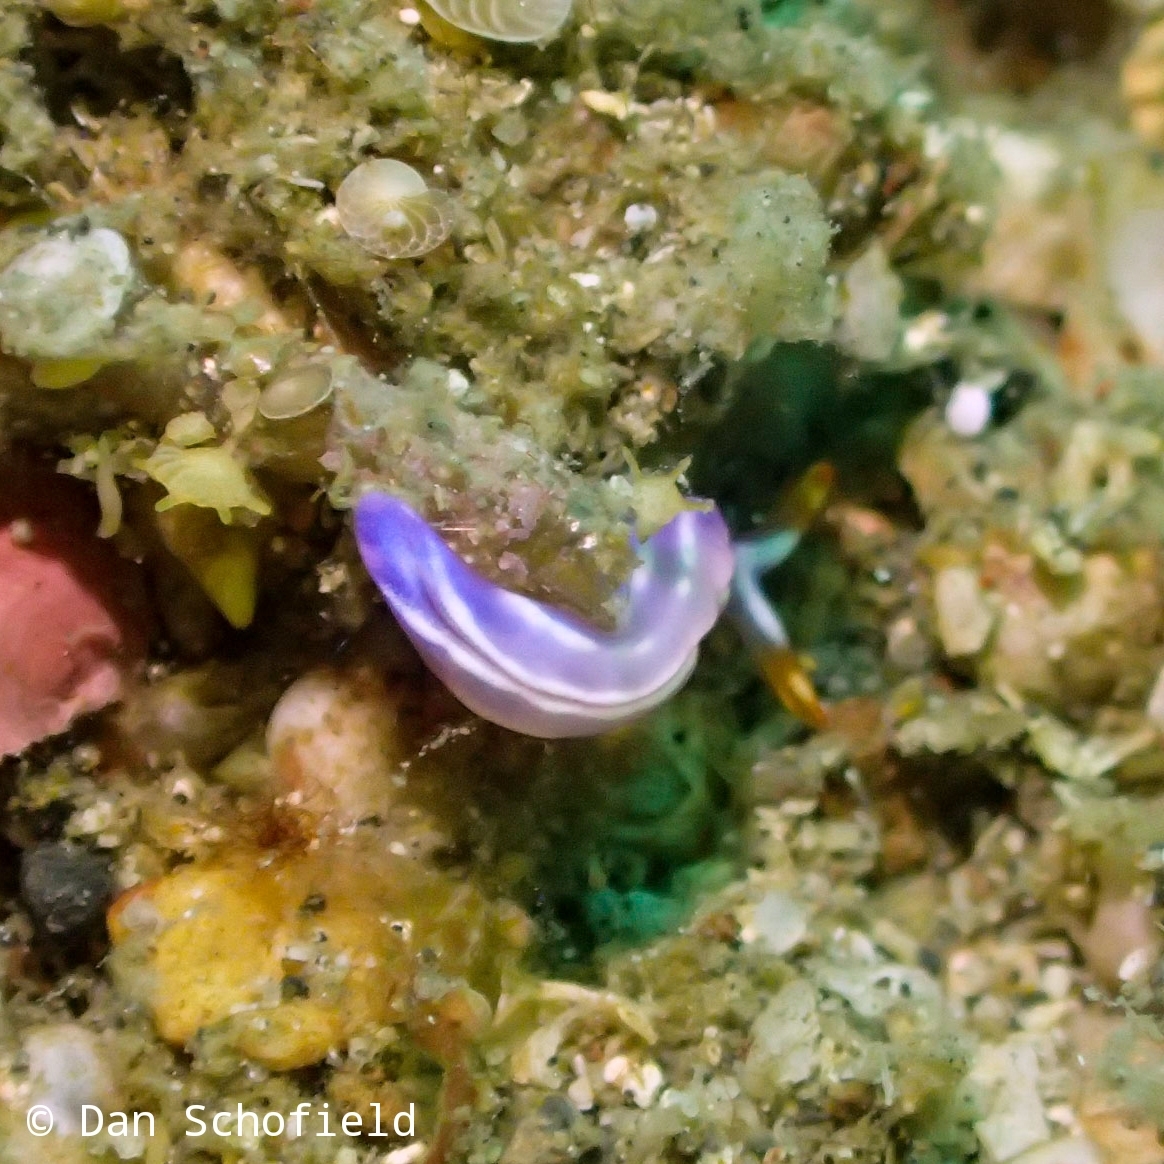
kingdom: Animalia
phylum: Mollusca
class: Gastropoda
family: Plakobranchidae
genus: Thuridilla
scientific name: Thuridilla albopustulosa
